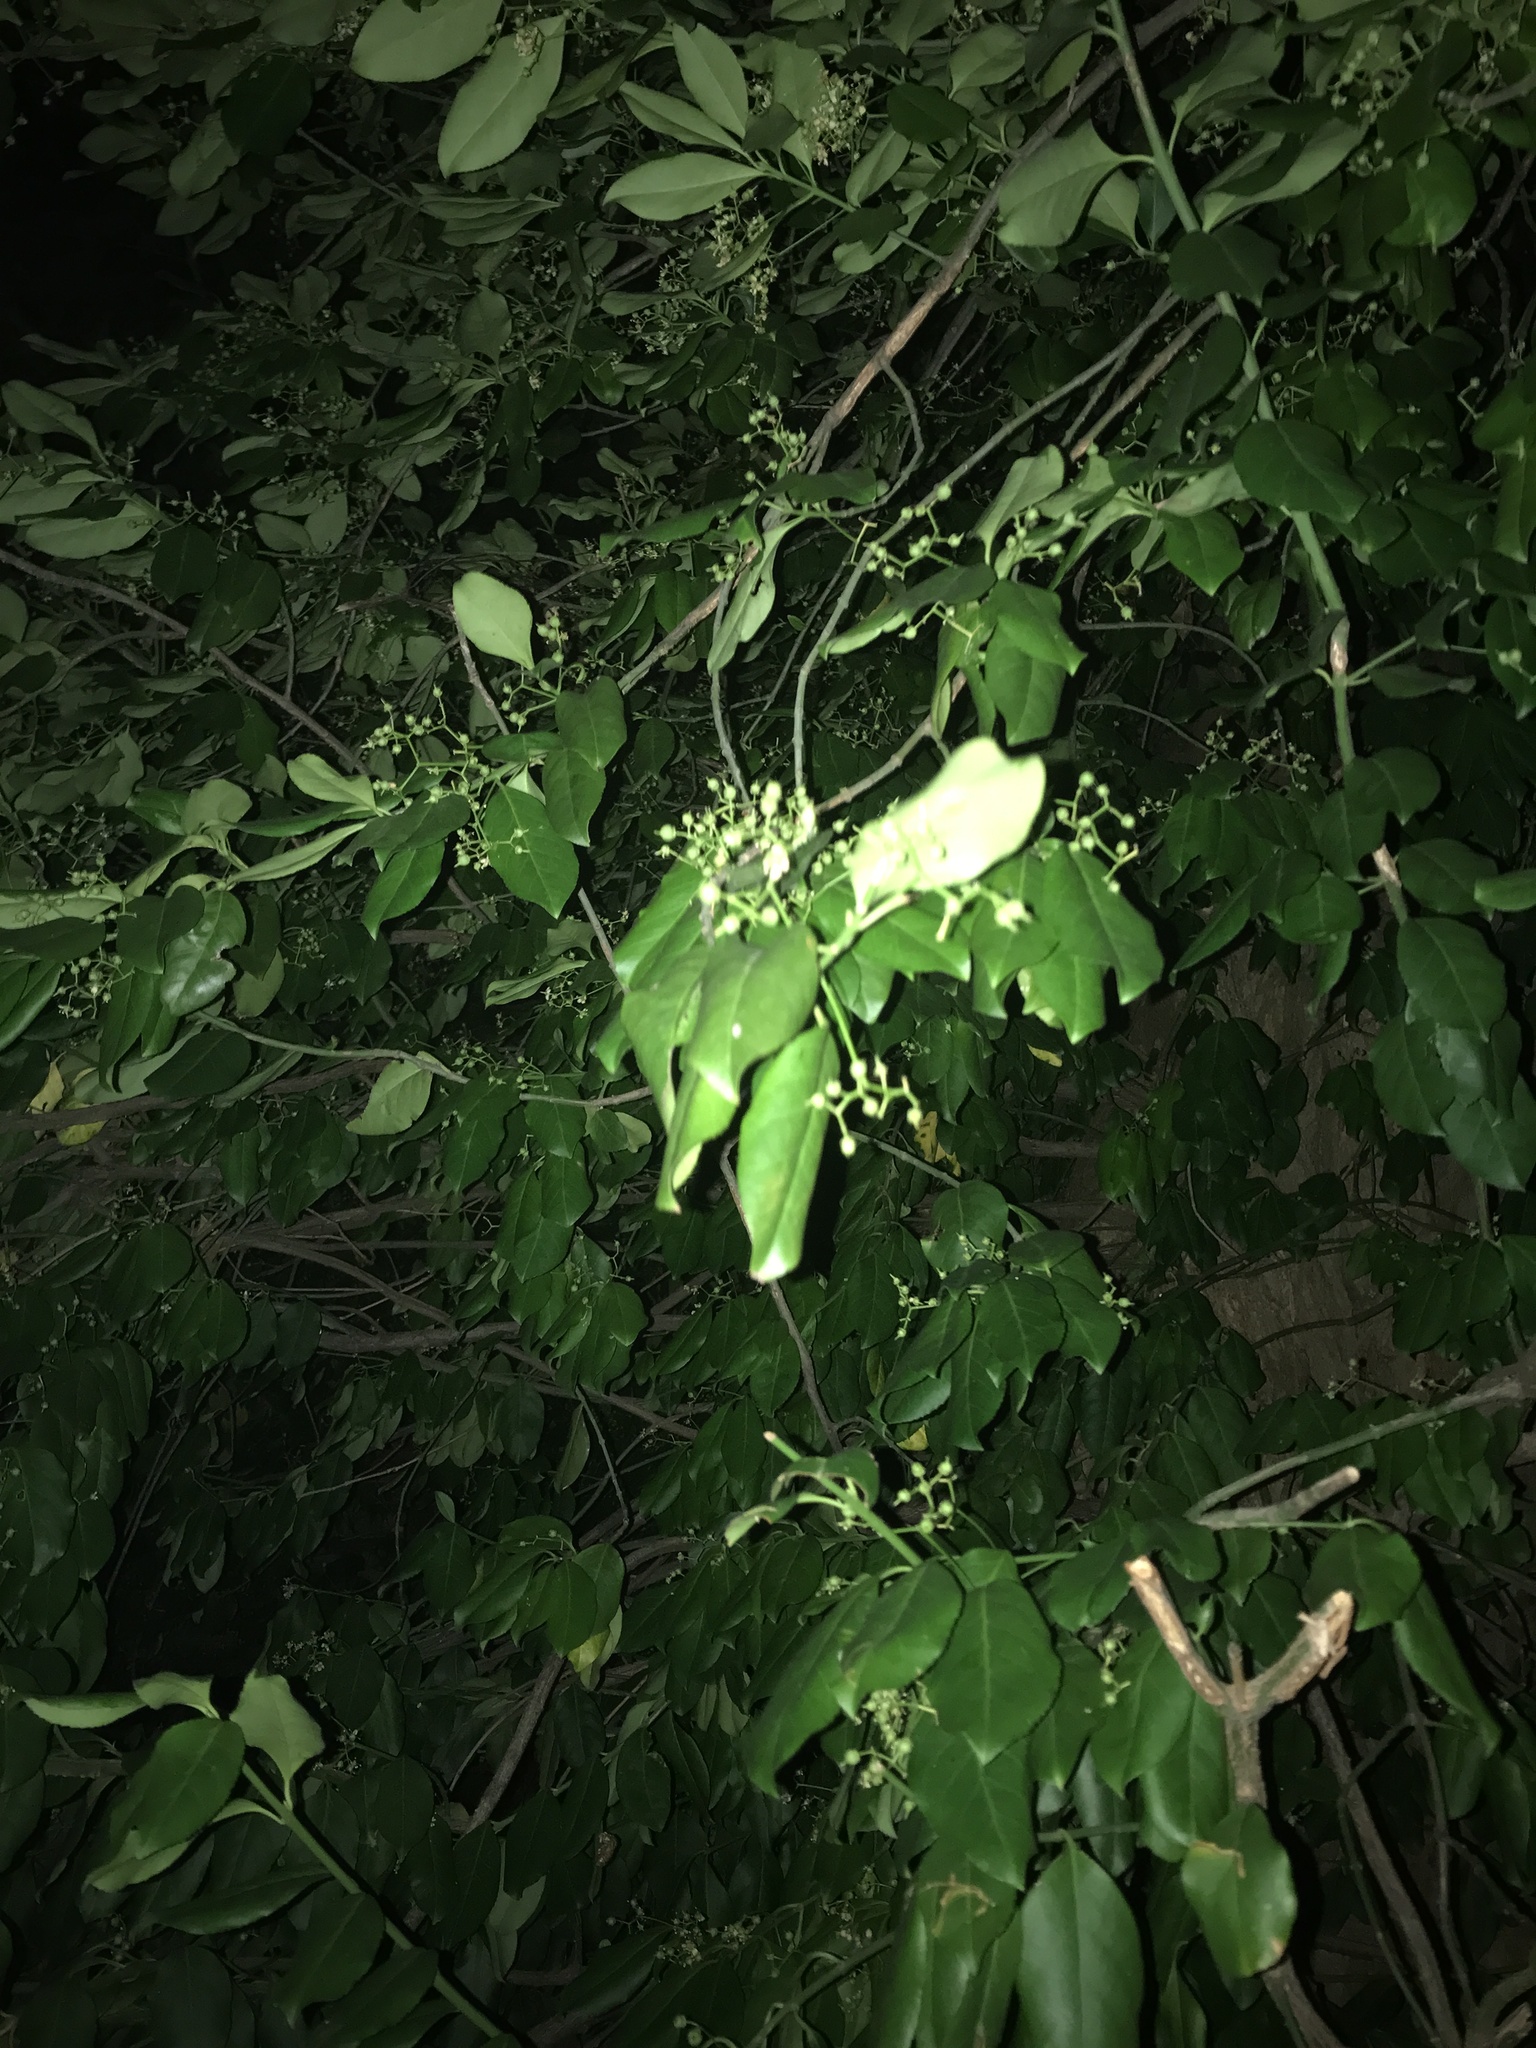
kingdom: Plantae
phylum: Tracheophyta
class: Magnoliopsida
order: Celastrales
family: Celastraceae
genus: Euonymus
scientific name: Euonymus fortunei
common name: Climbing euonymus
